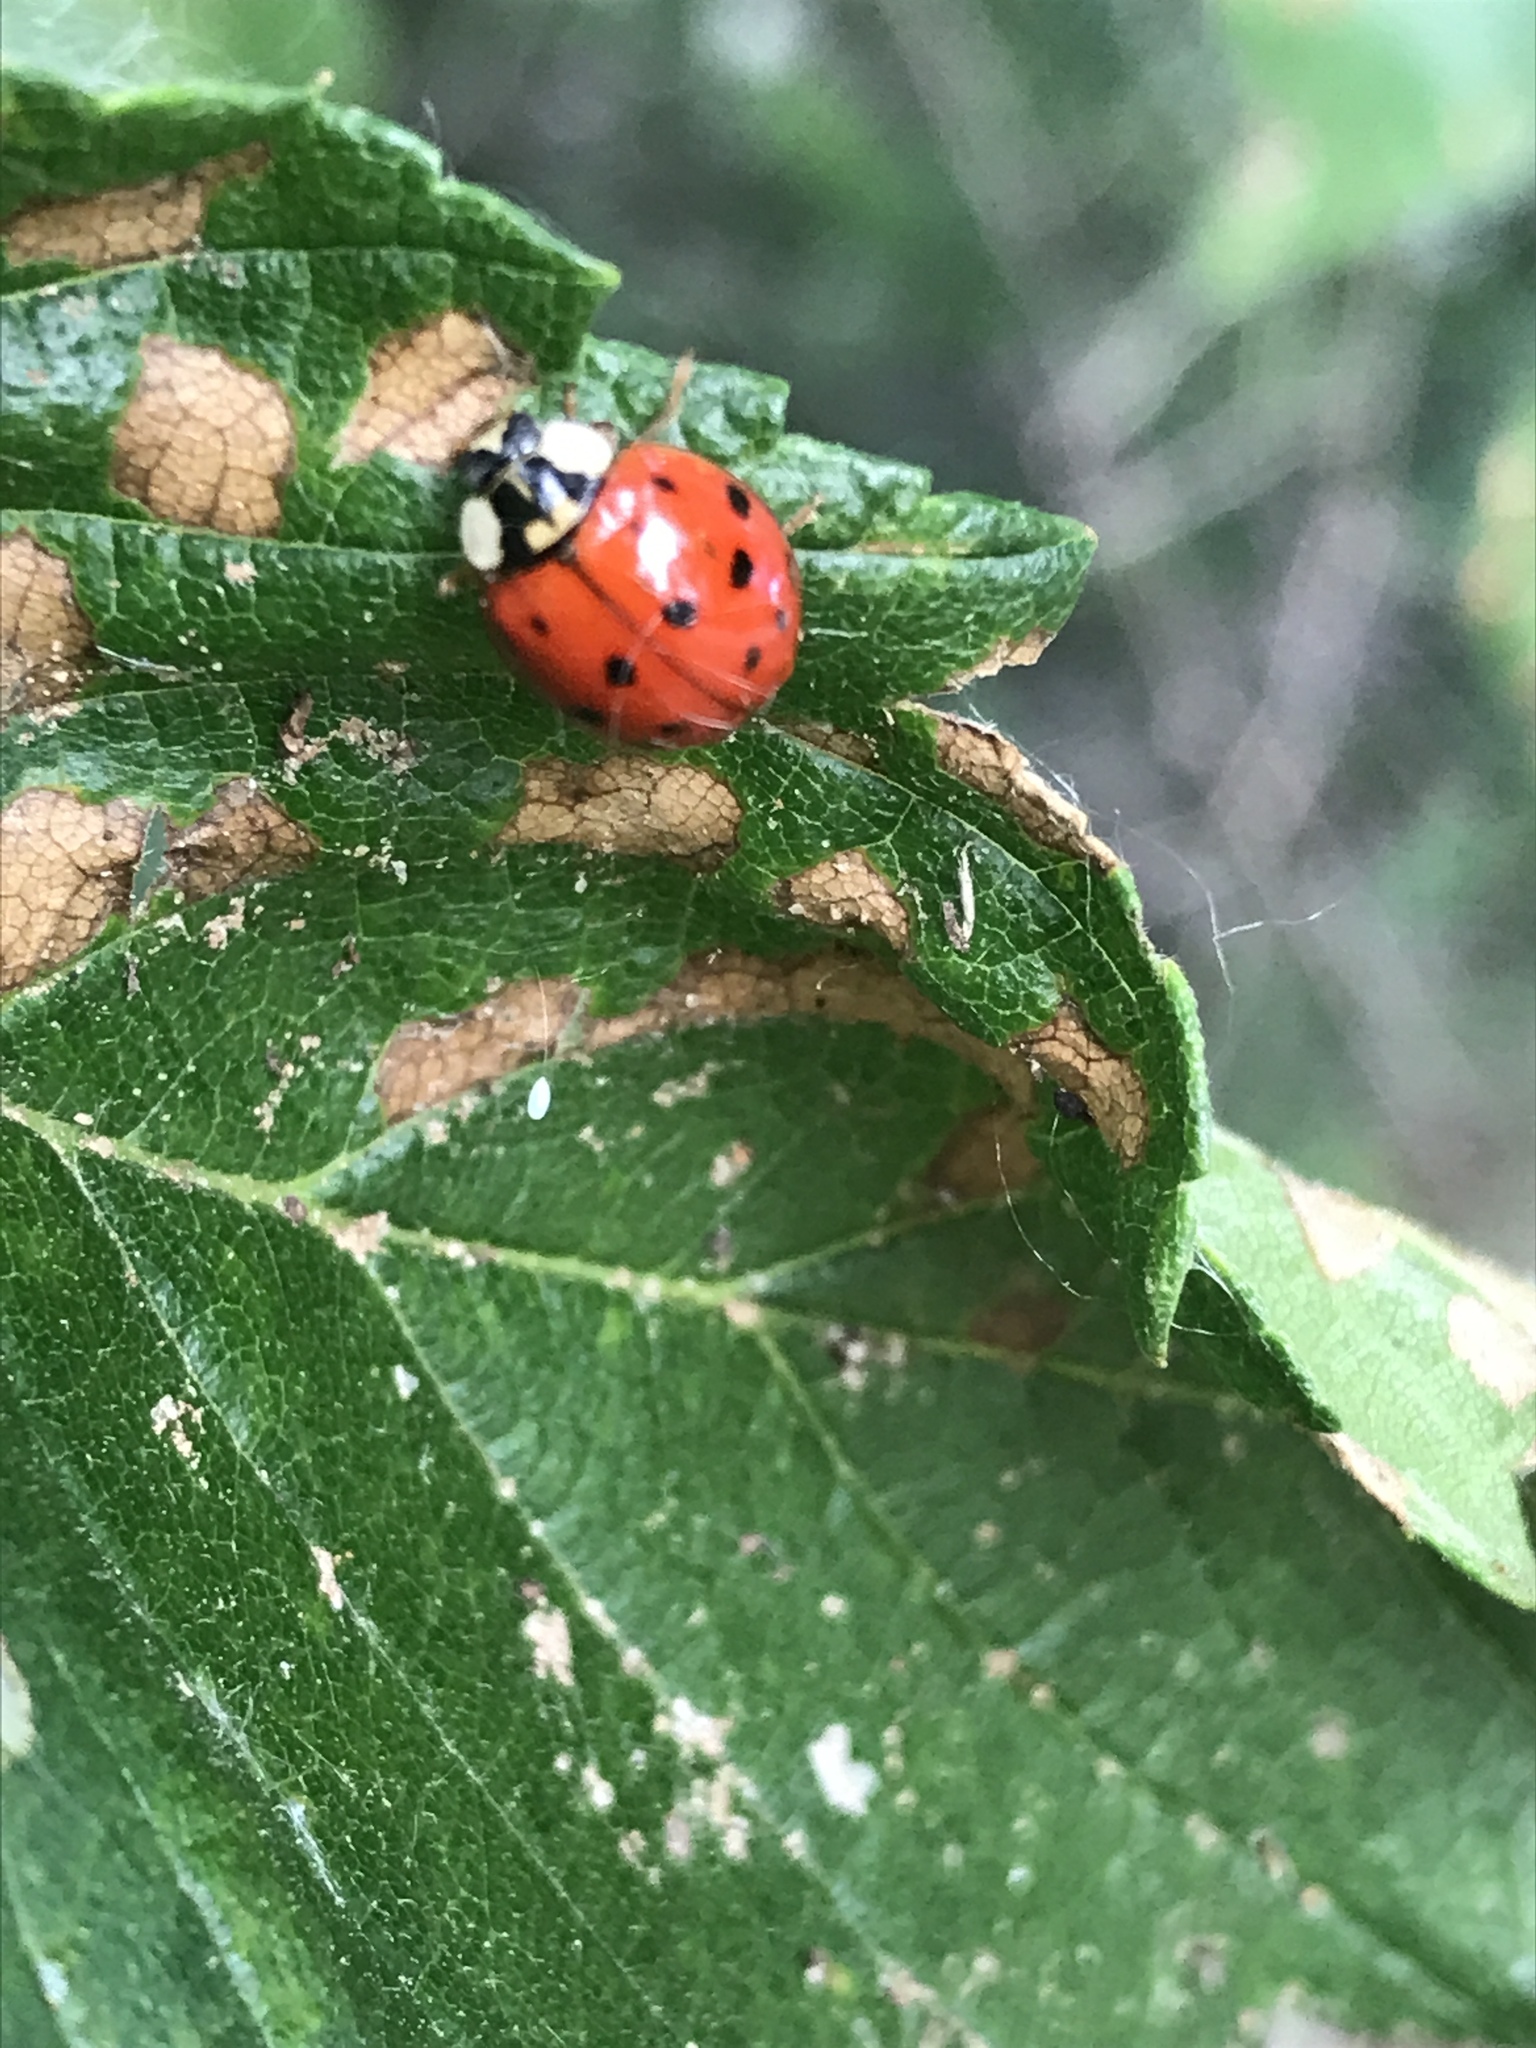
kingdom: Animalia
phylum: Arthropoda
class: Insecta
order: Coleoptera
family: Coccinellidae
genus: Harmonia
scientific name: Harmonia axyridis
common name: Harlequin ladybird
